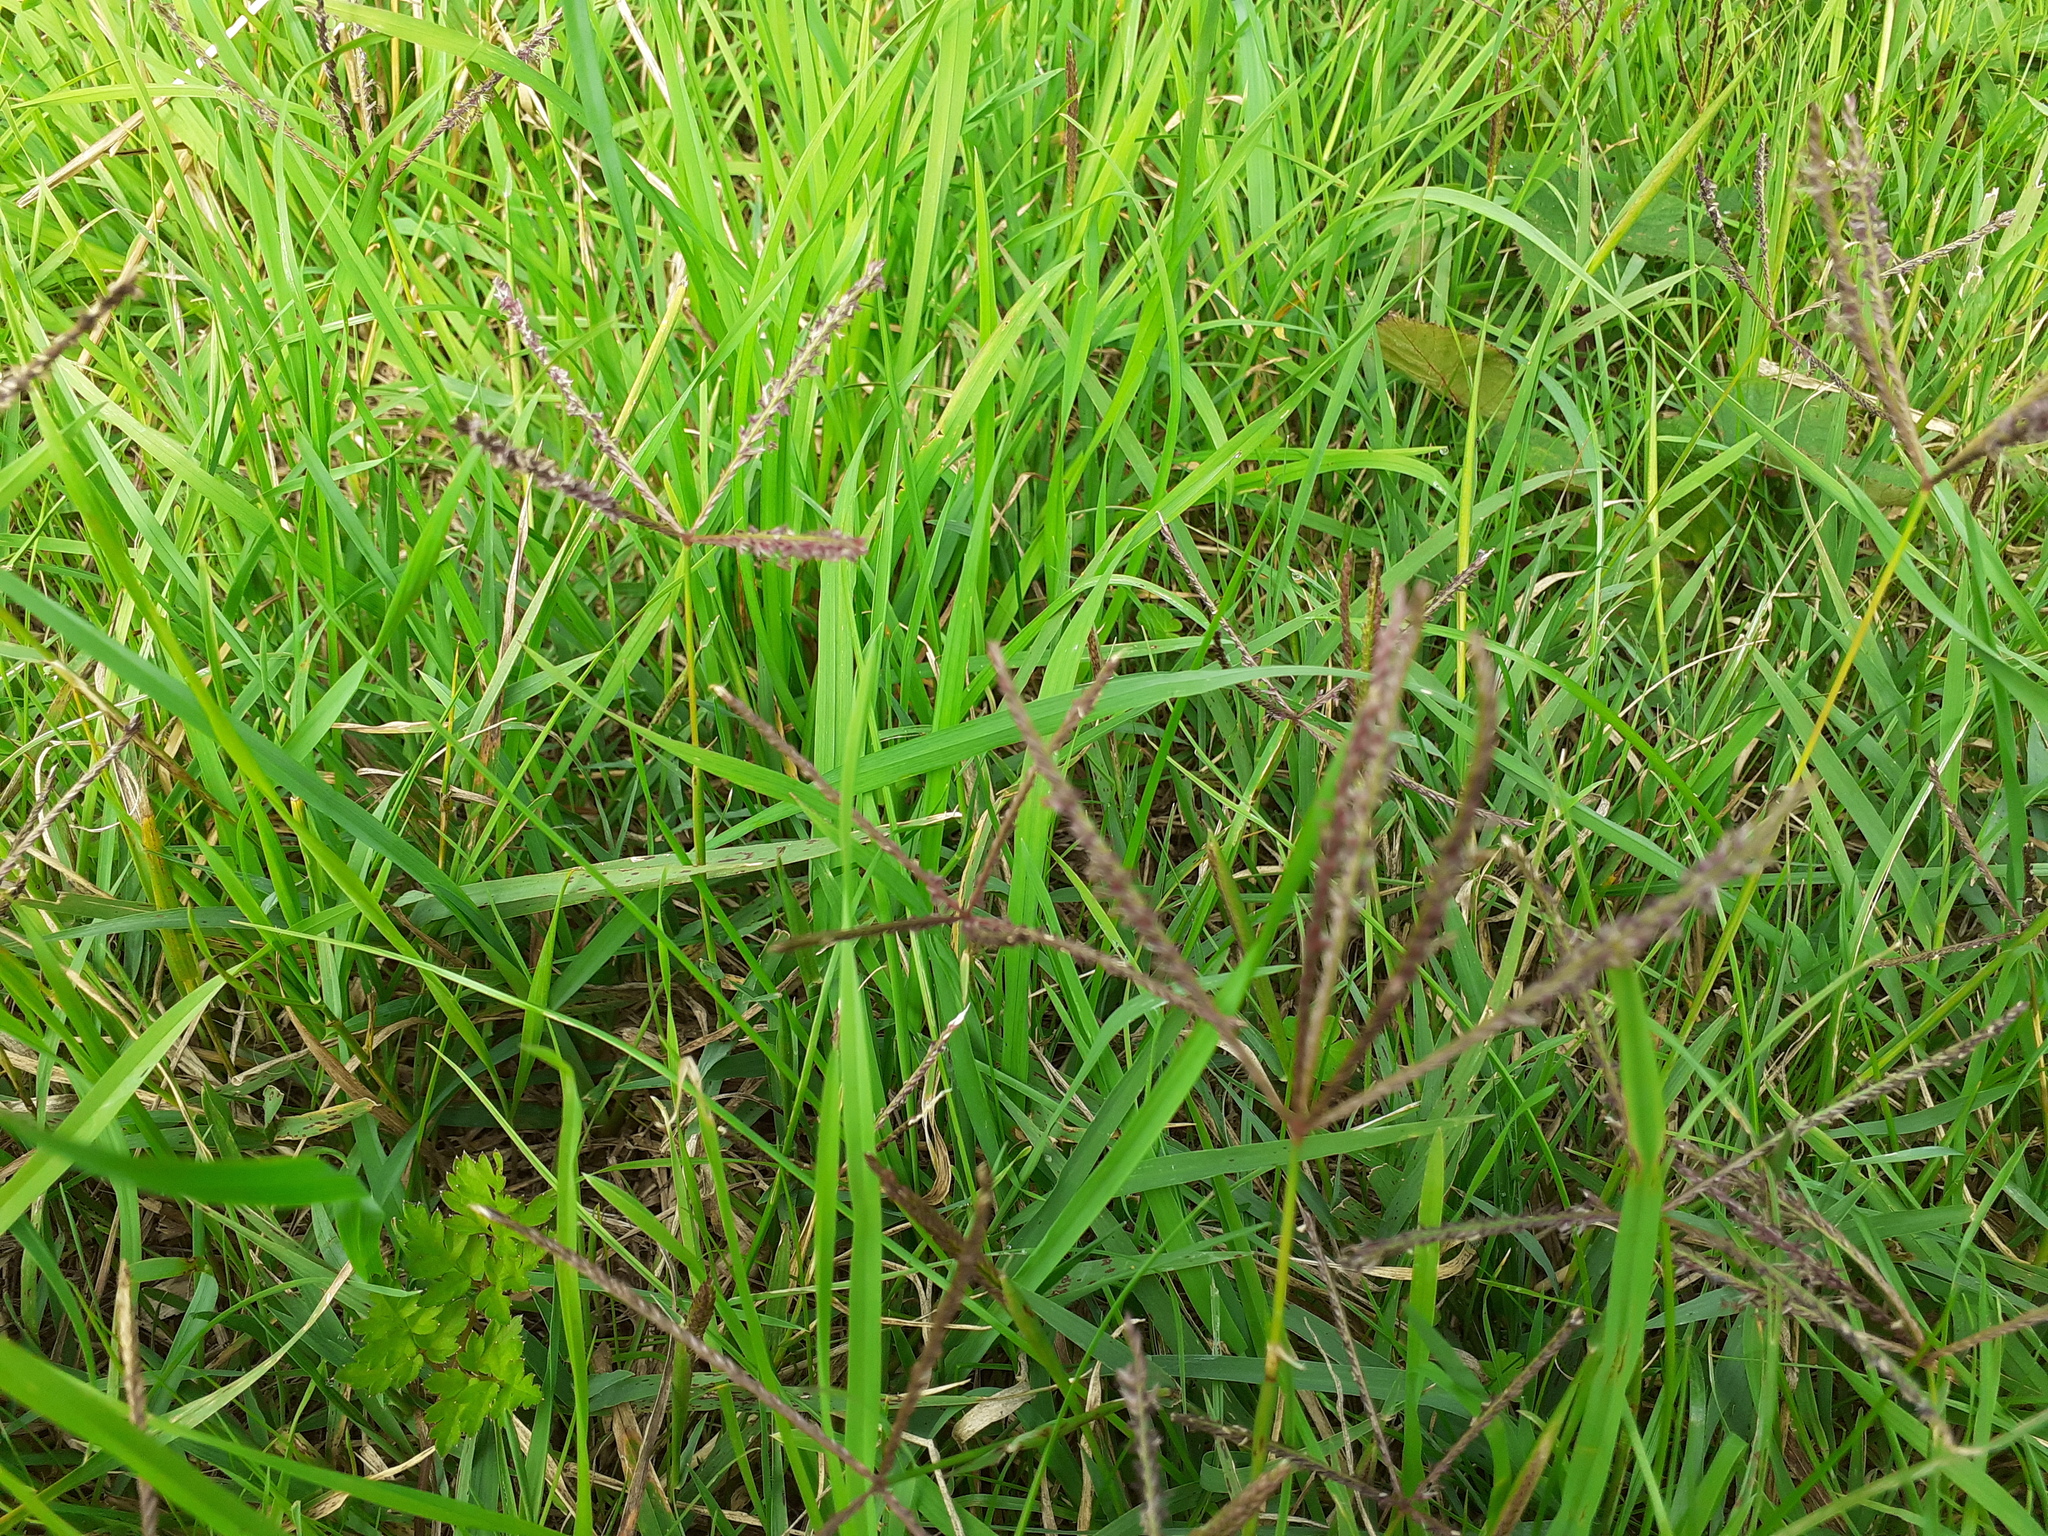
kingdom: Plantae
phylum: Tracheophyta
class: Liliopsida
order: Poales
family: Poaceae
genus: Cynodon
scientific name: Cynodon dactylon
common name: Bermuda grass
